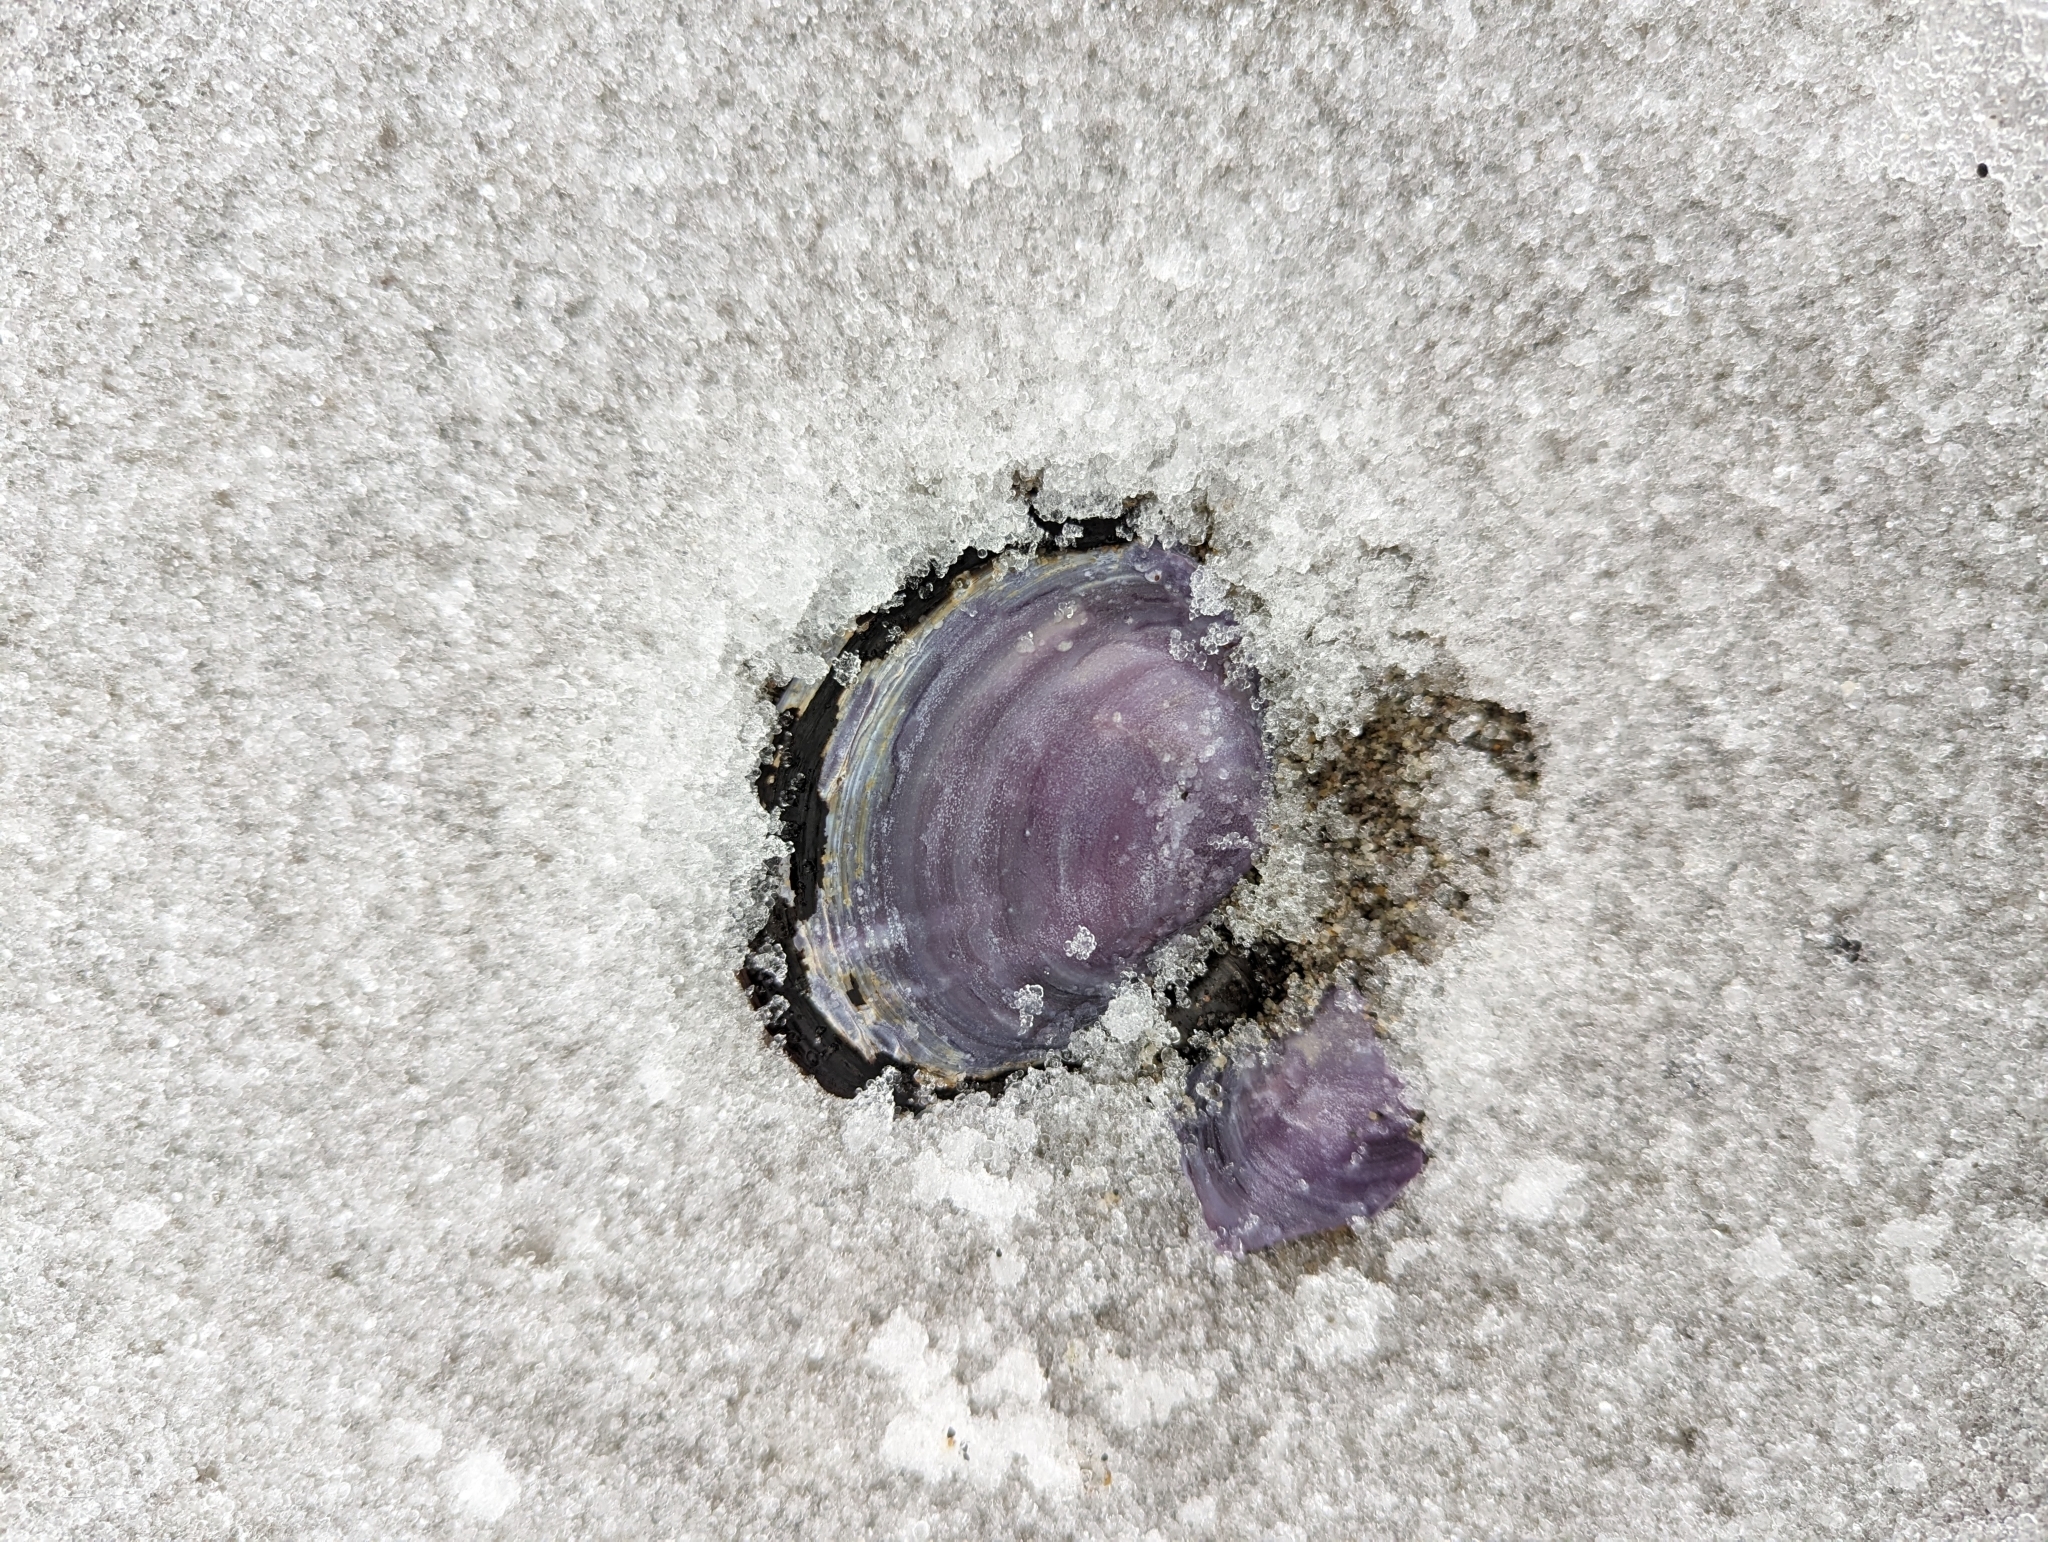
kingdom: Animalia
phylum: Mollusca
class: Bivalvia
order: Cardiida
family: Psammobiidae
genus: Nuttallia
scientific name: Nuttallia obscurata
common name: Purple mahogany-clam
